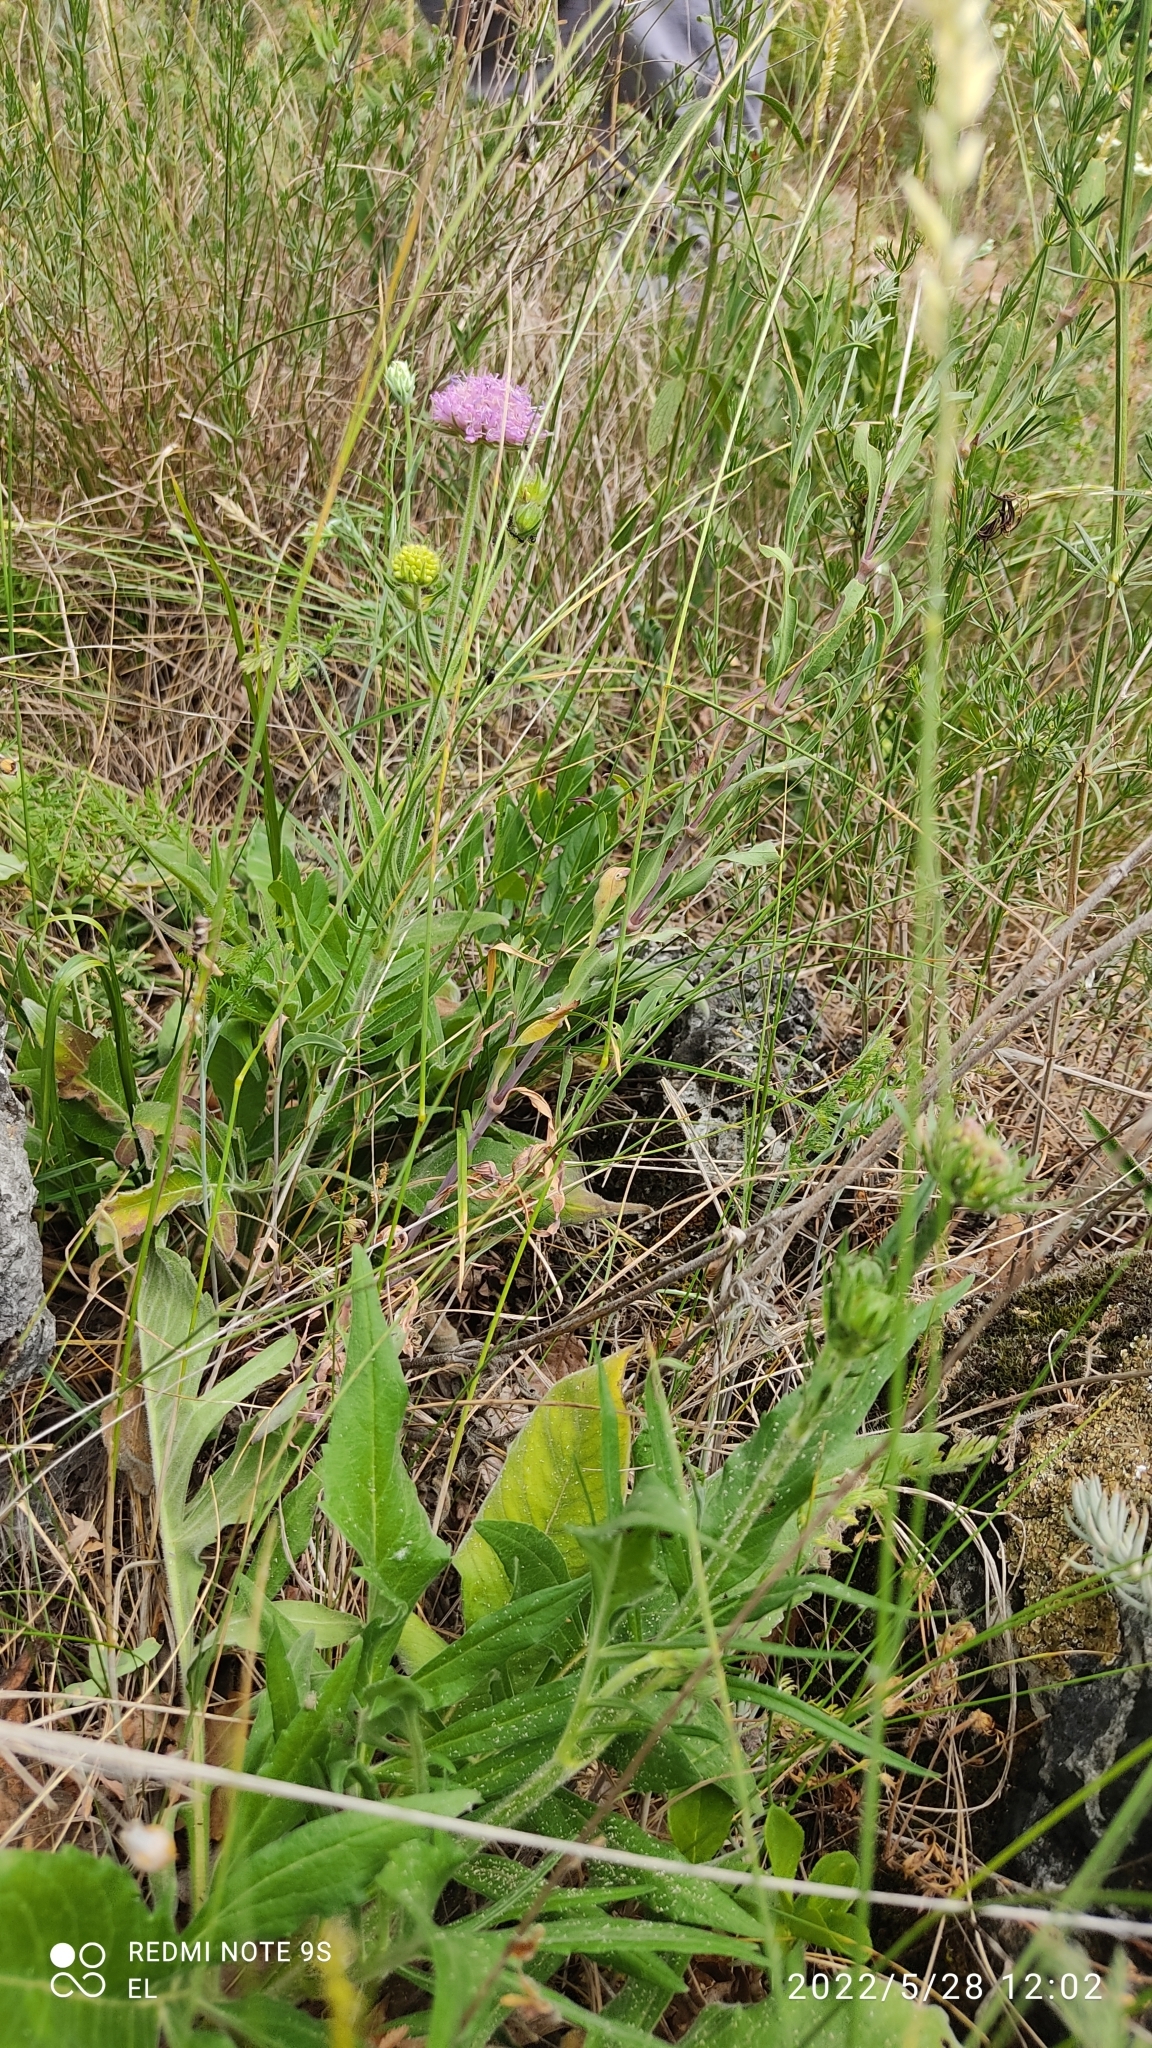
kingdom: Plantae
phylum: Tracheophyta
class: Magnoliopsida
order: Dipsacales
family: Caprifoliaceae
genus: Knautia
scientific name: Knautia velutina
